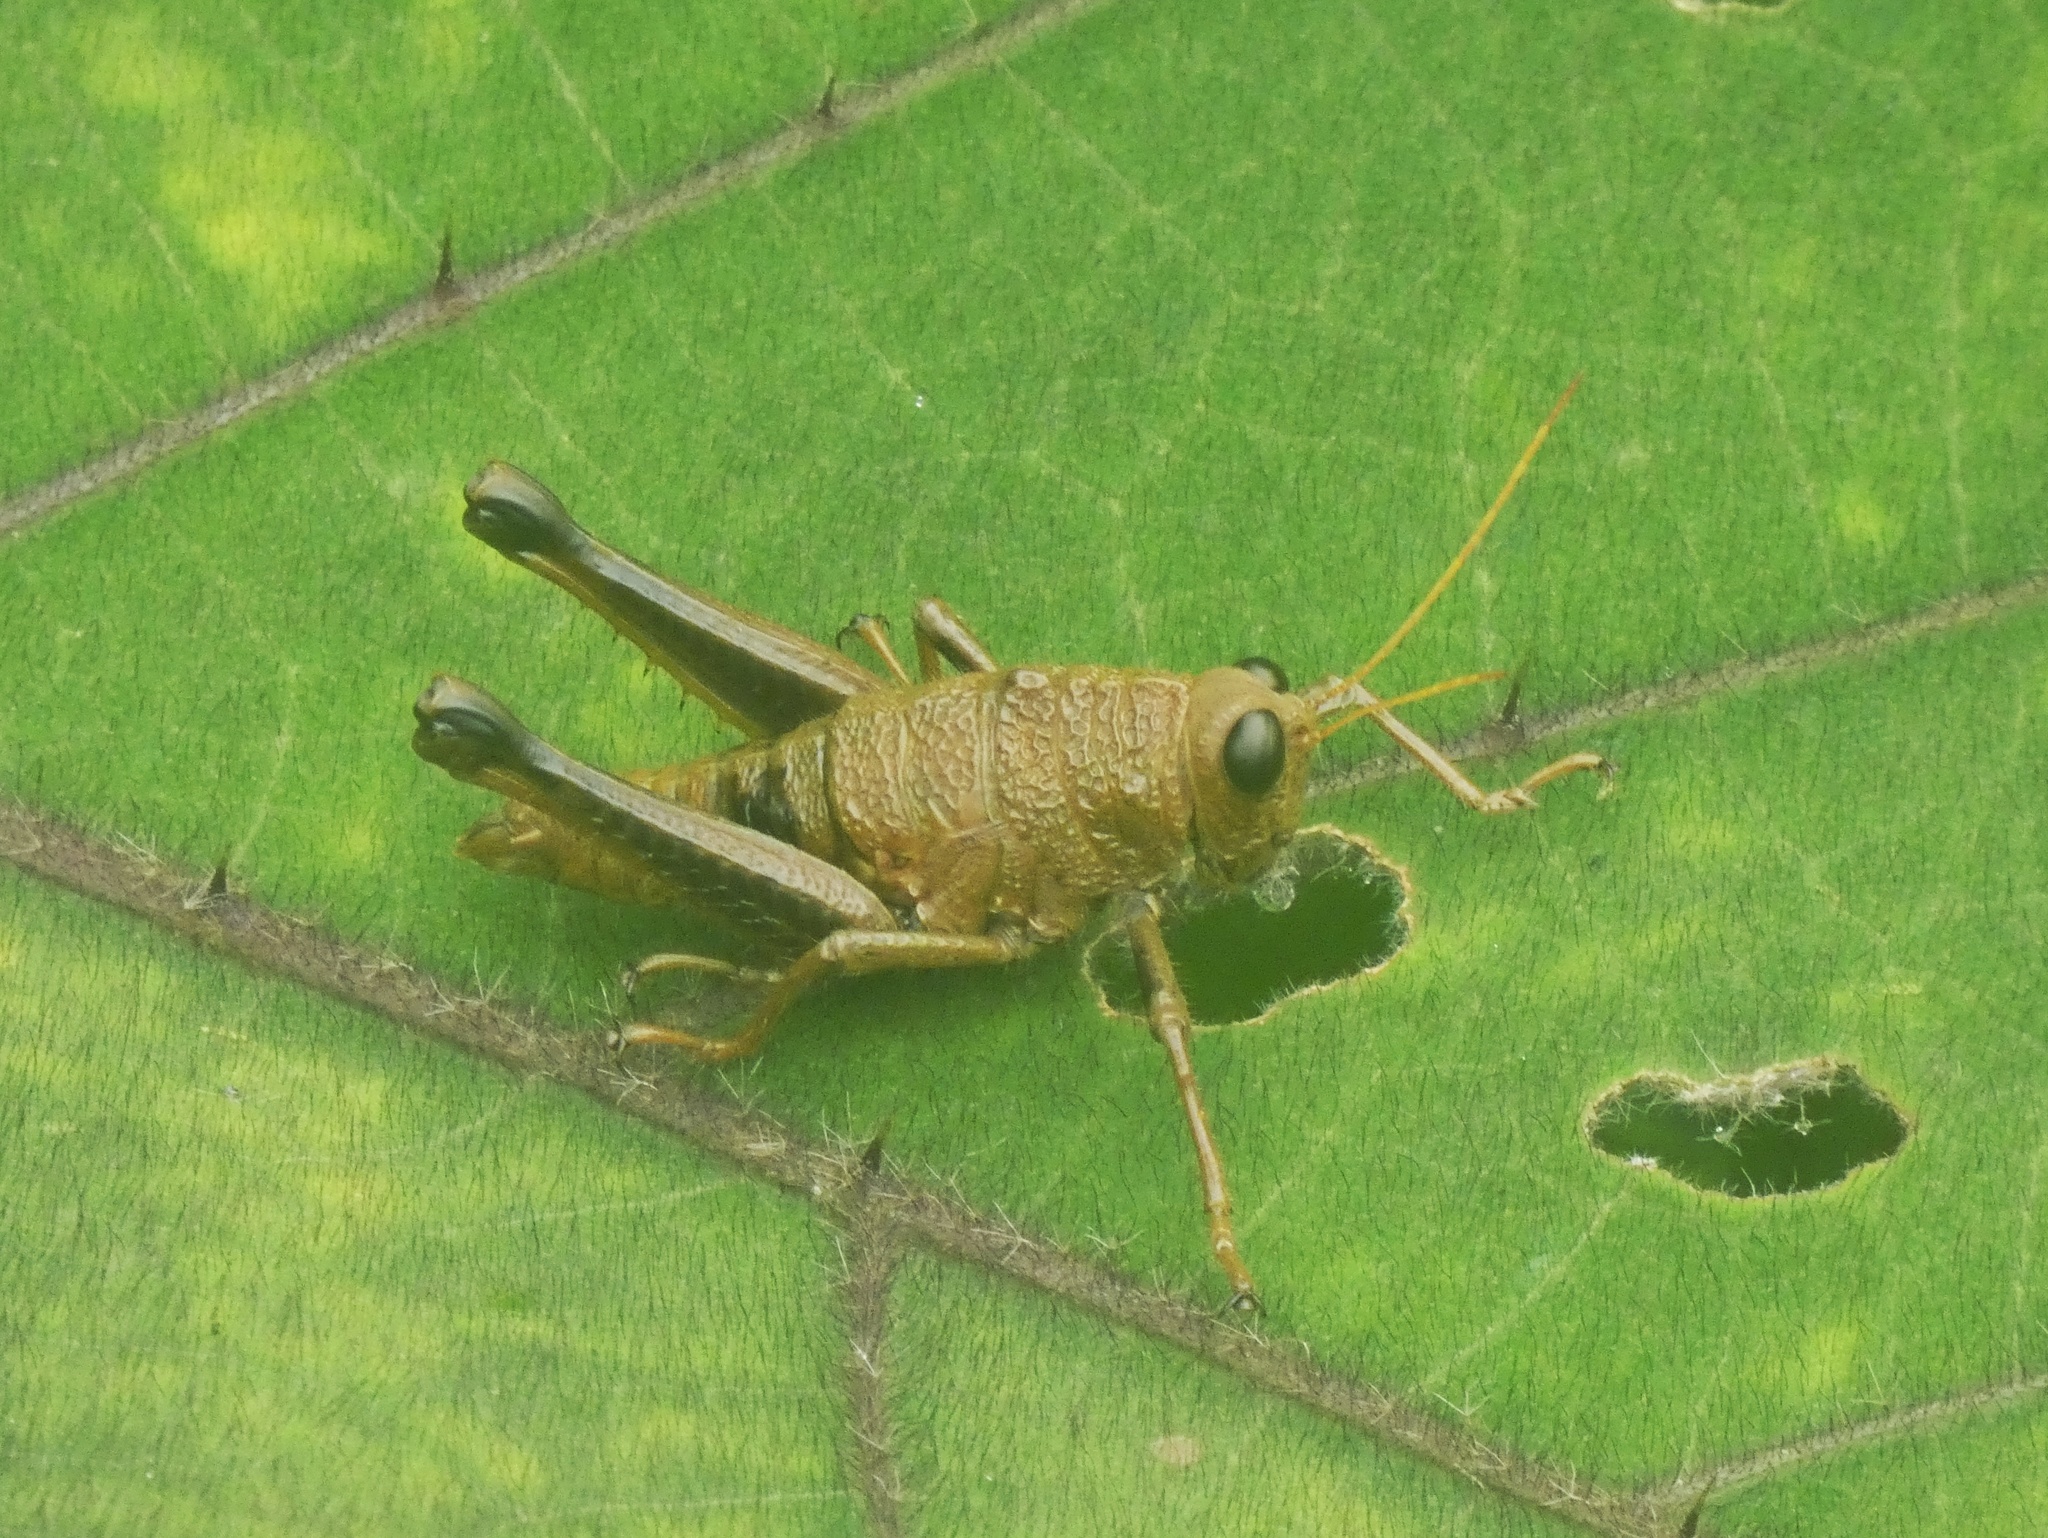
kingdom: Animalia
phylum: Arthropoda
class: Insecta
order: Orthoptera
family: Acrididae
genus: Rhachicreagra
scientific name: Rhachicreagra dierythra
